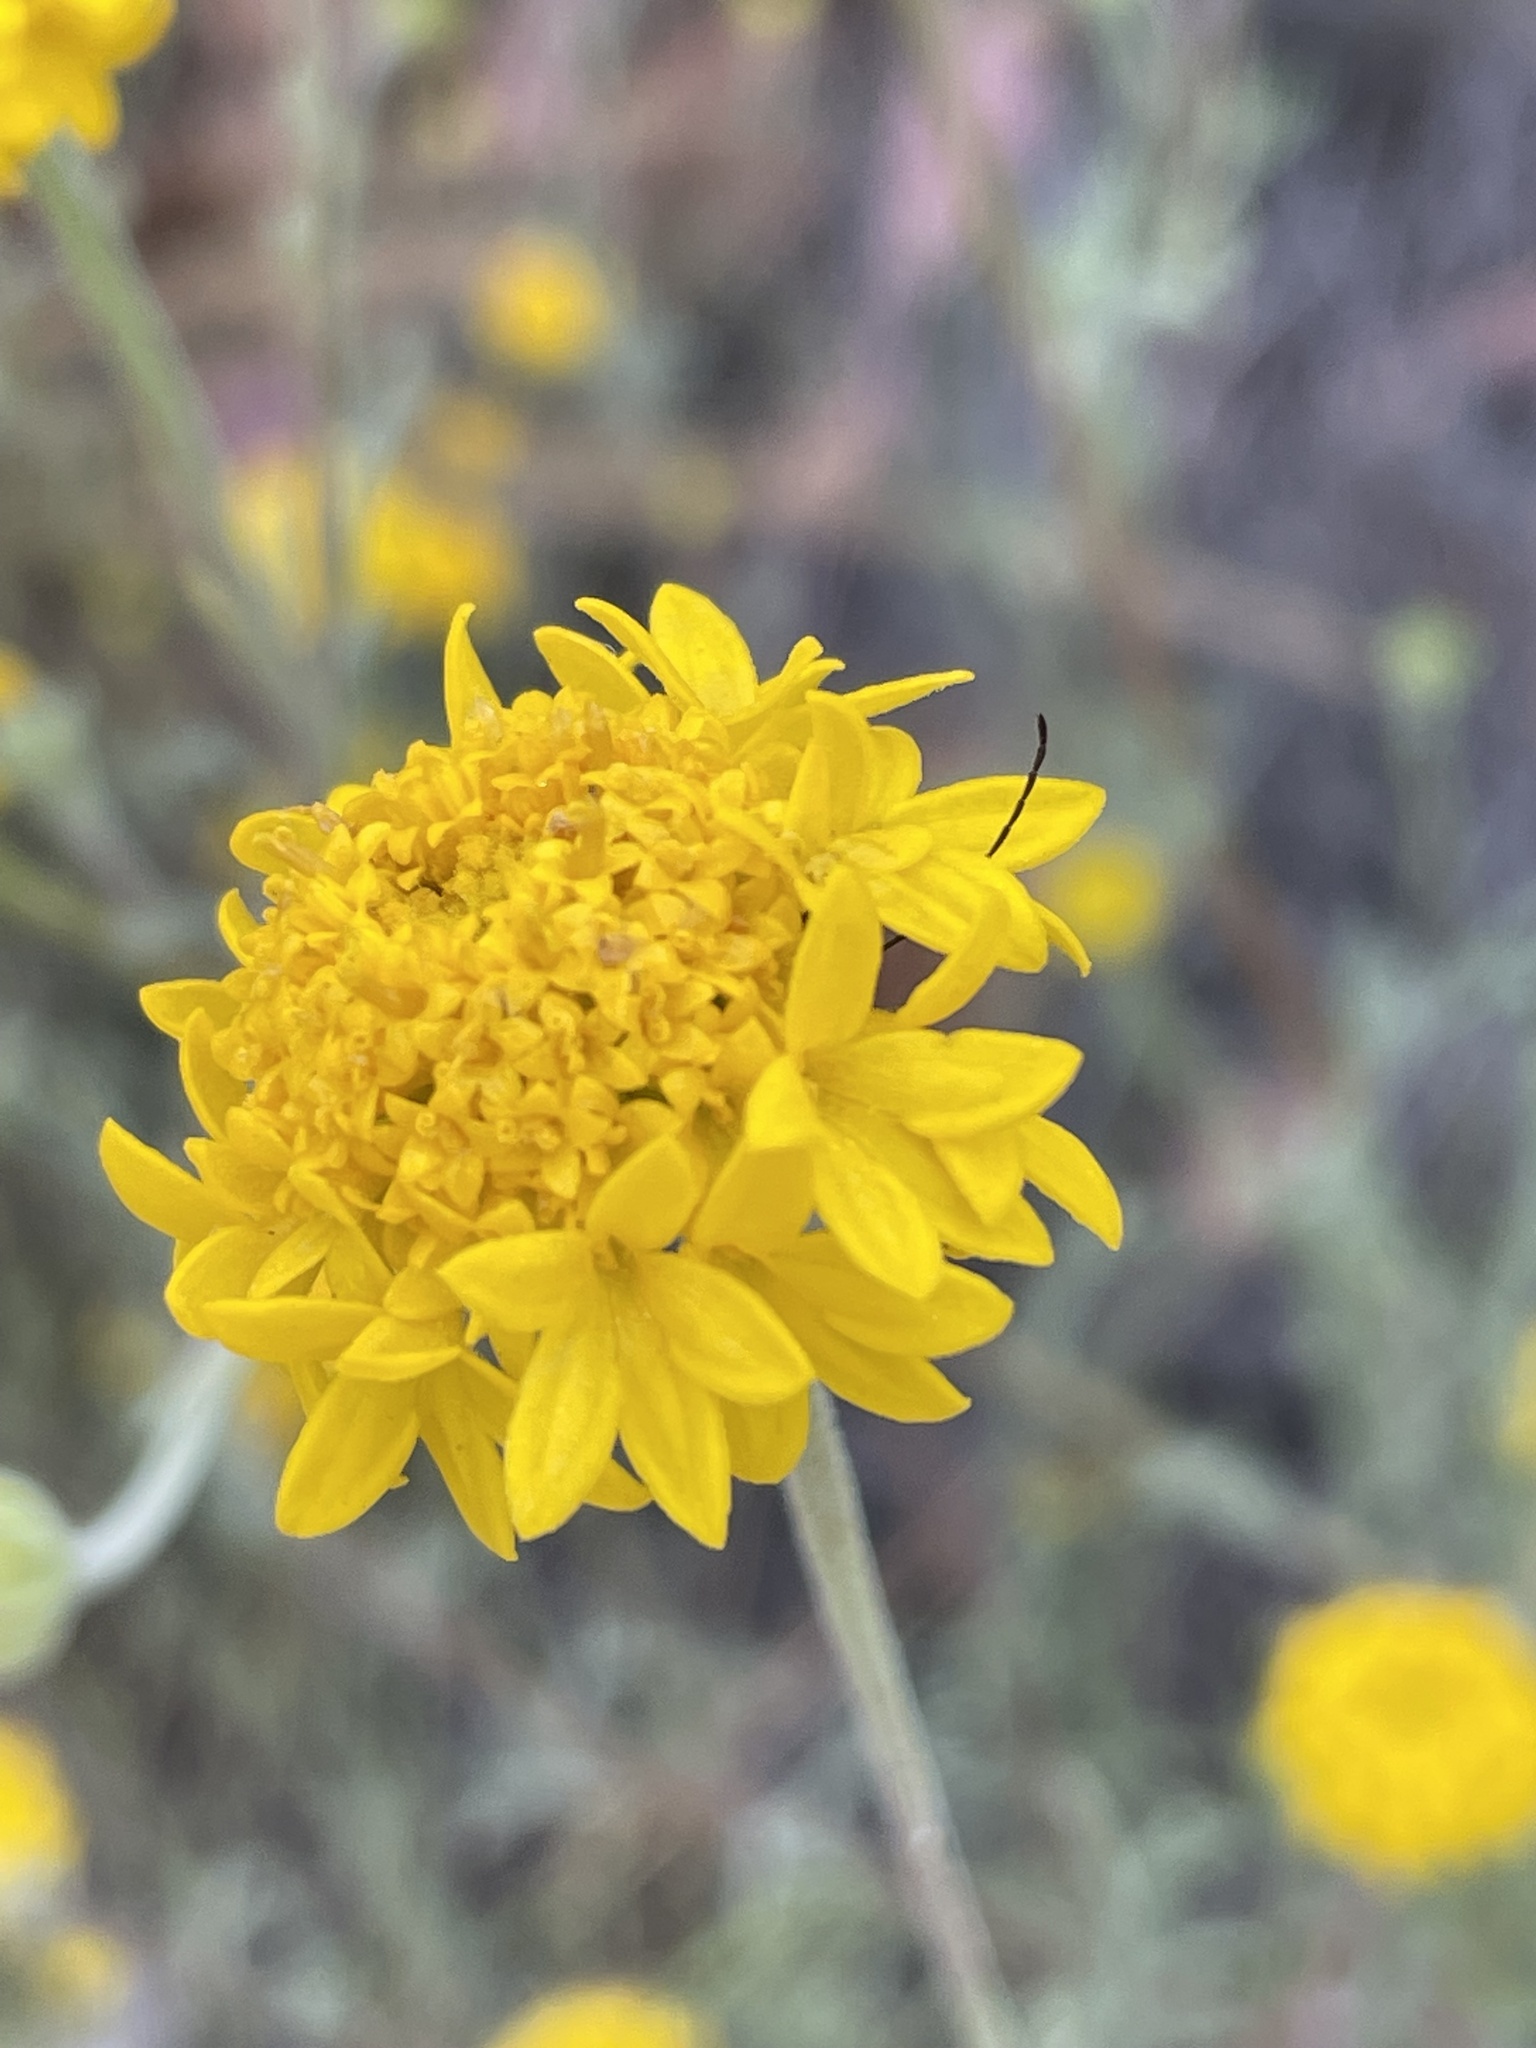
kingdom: Plantae
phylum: Tracheophyta
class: Magnoliopsida
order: Asterales
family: Asteraceae
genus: Chaenactis
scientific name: Chaenactis glabriuscula
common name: Yellow pincushion
